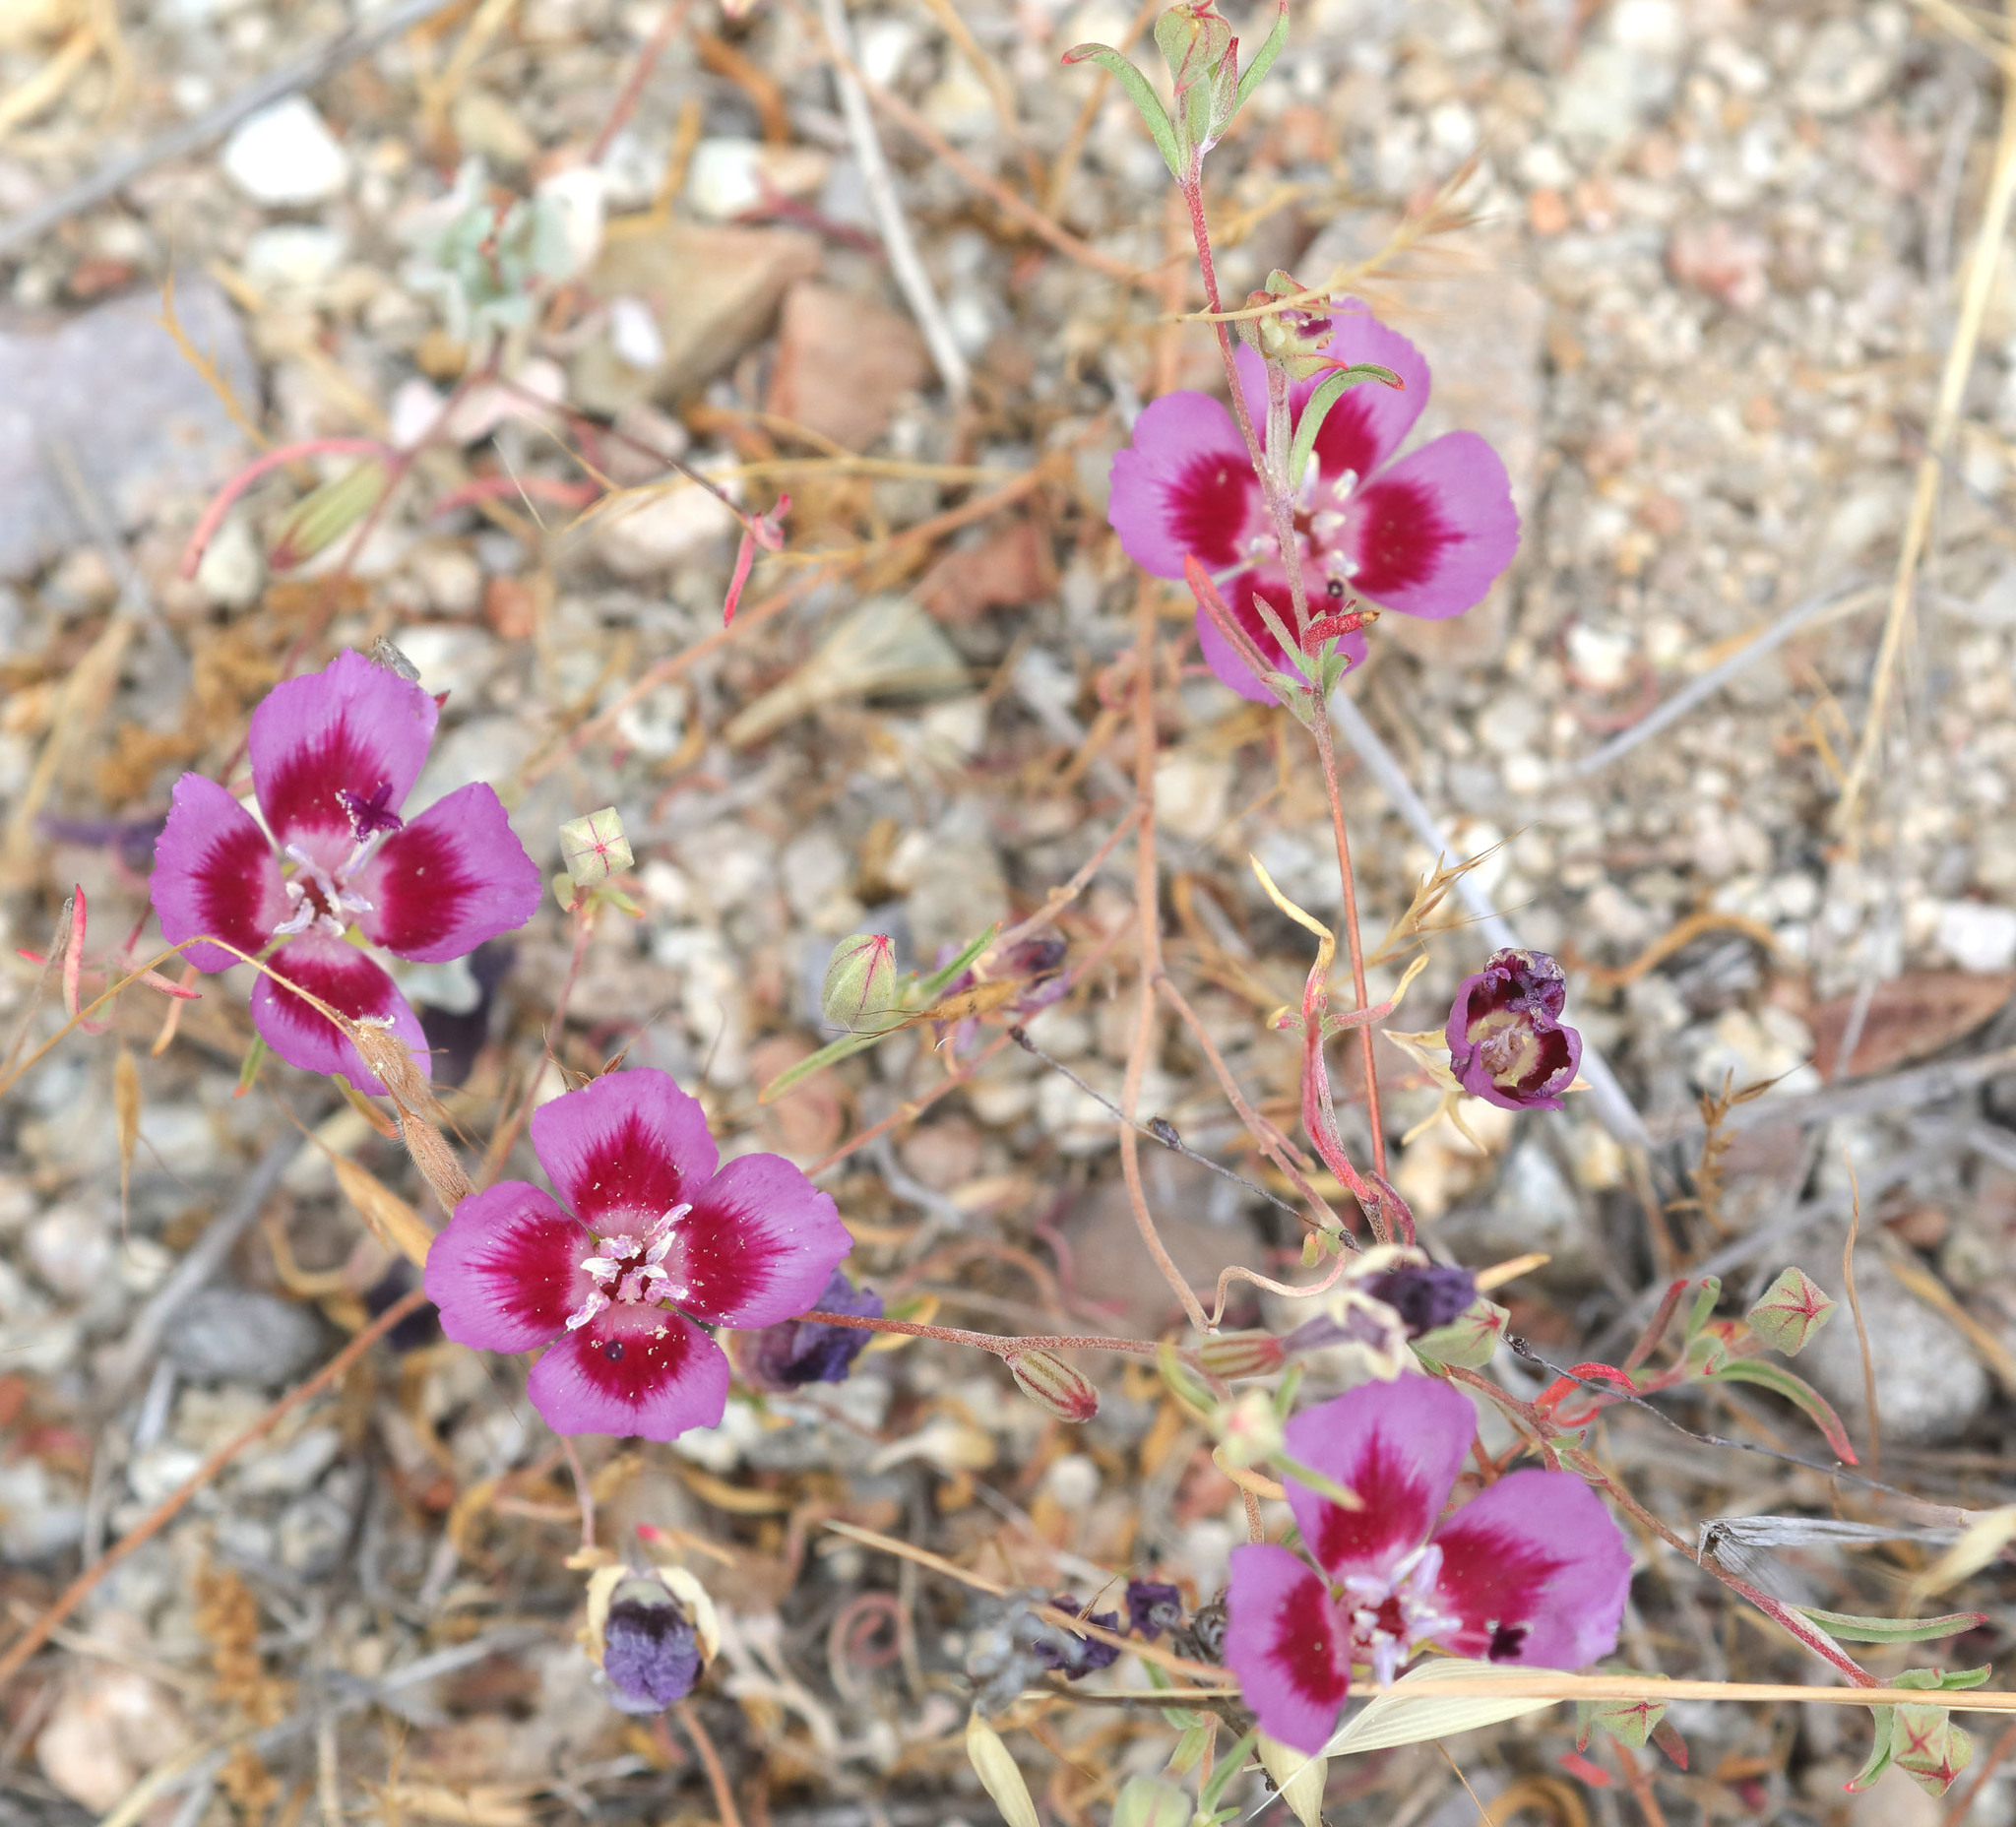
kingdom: Plantae
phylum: Tracheophyta
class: Magnoliopsida
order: Myrtales
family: Onagraceae
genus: Clarkia
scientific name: Clarkia speciosa
